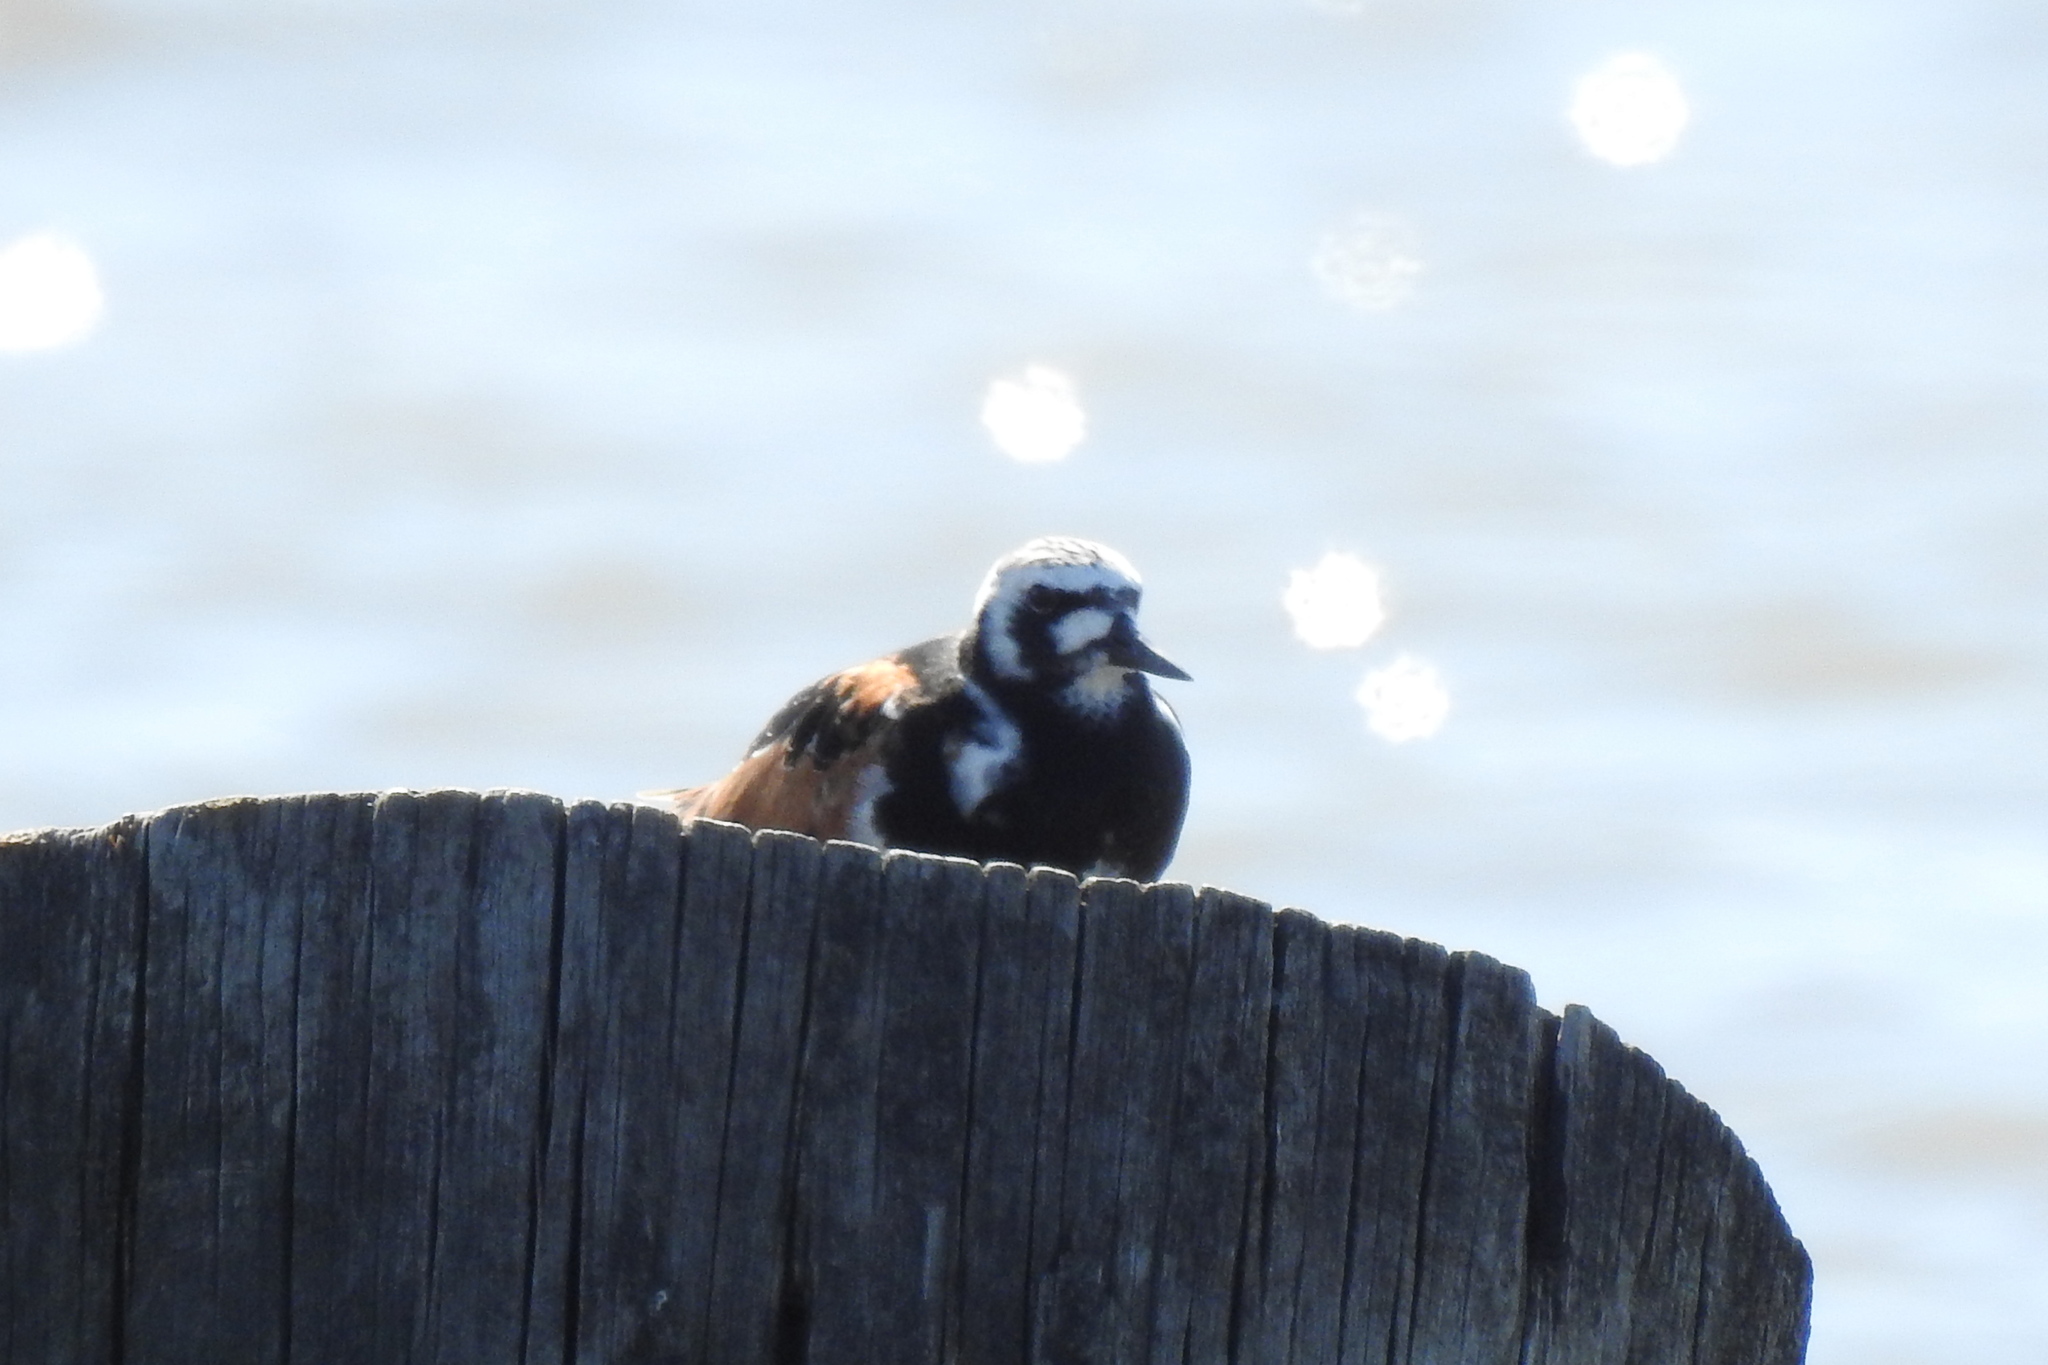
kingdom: Animalia
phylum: Chordata
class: Aves
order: Charadriiformes
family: Scolopacidae
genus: Arenaria
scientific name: Arenaria interpres
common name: Ruddy turnstone
